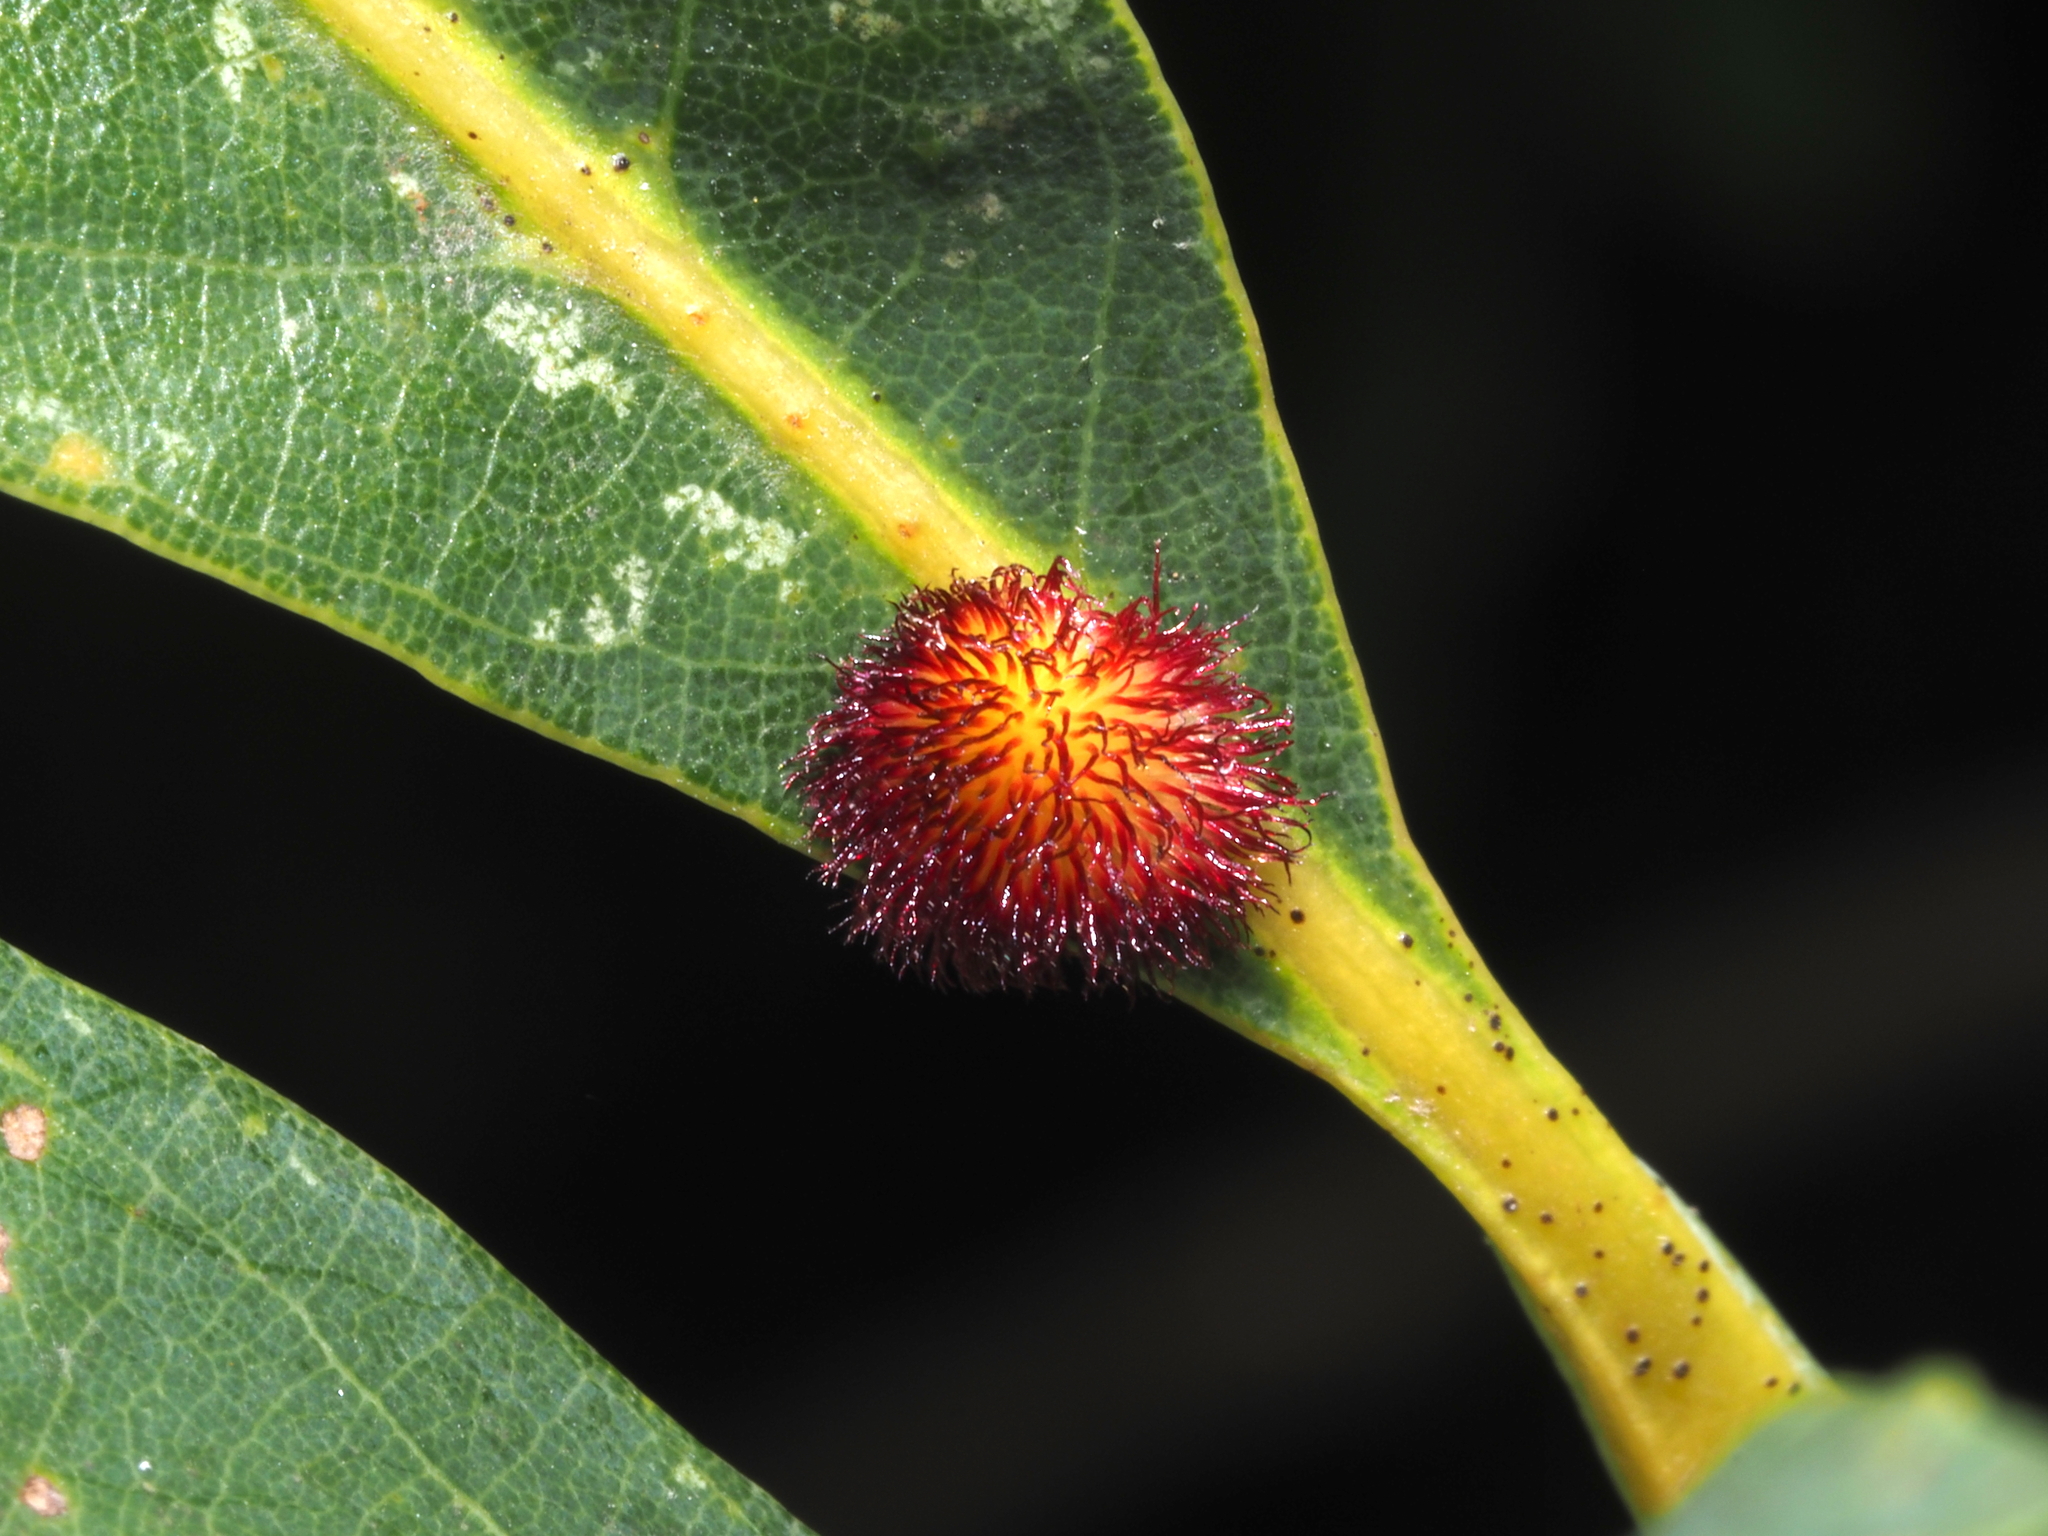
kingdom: Animalia
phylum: Arthropoda
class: Insecta
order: Hymenoptera
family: Cynipidae
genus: Acraspis
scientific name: Acraspis erinacei
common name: Hedgehog gall wasp
